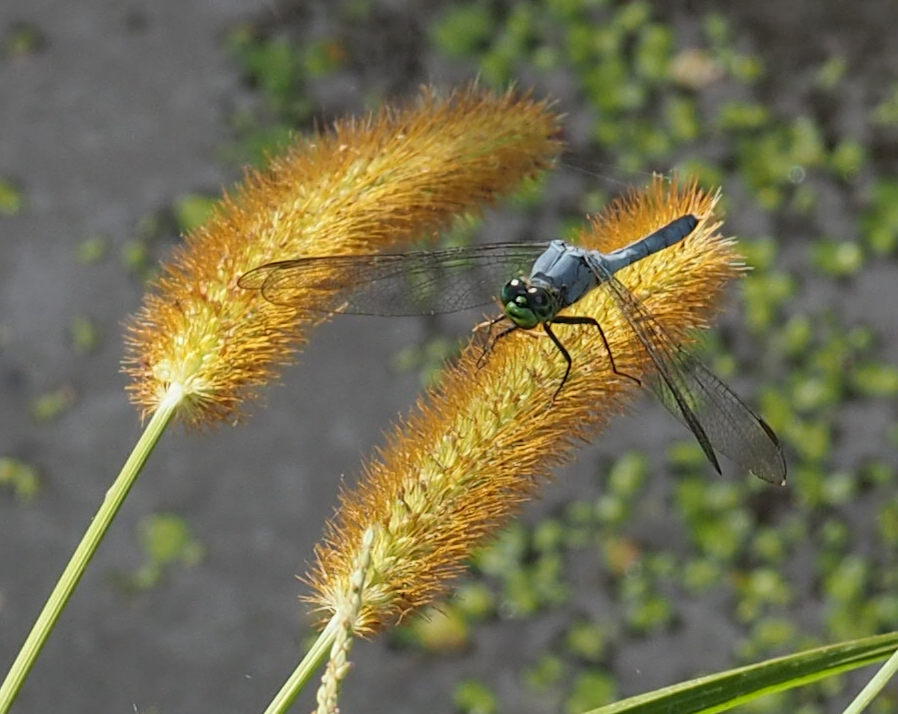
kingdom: Animalia
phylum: Arthropoda
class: Insecta
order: Odonata
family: Libellulidae
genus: Erythemis
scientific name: Erythemis simplicicollis
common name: Eastern pondhawk
